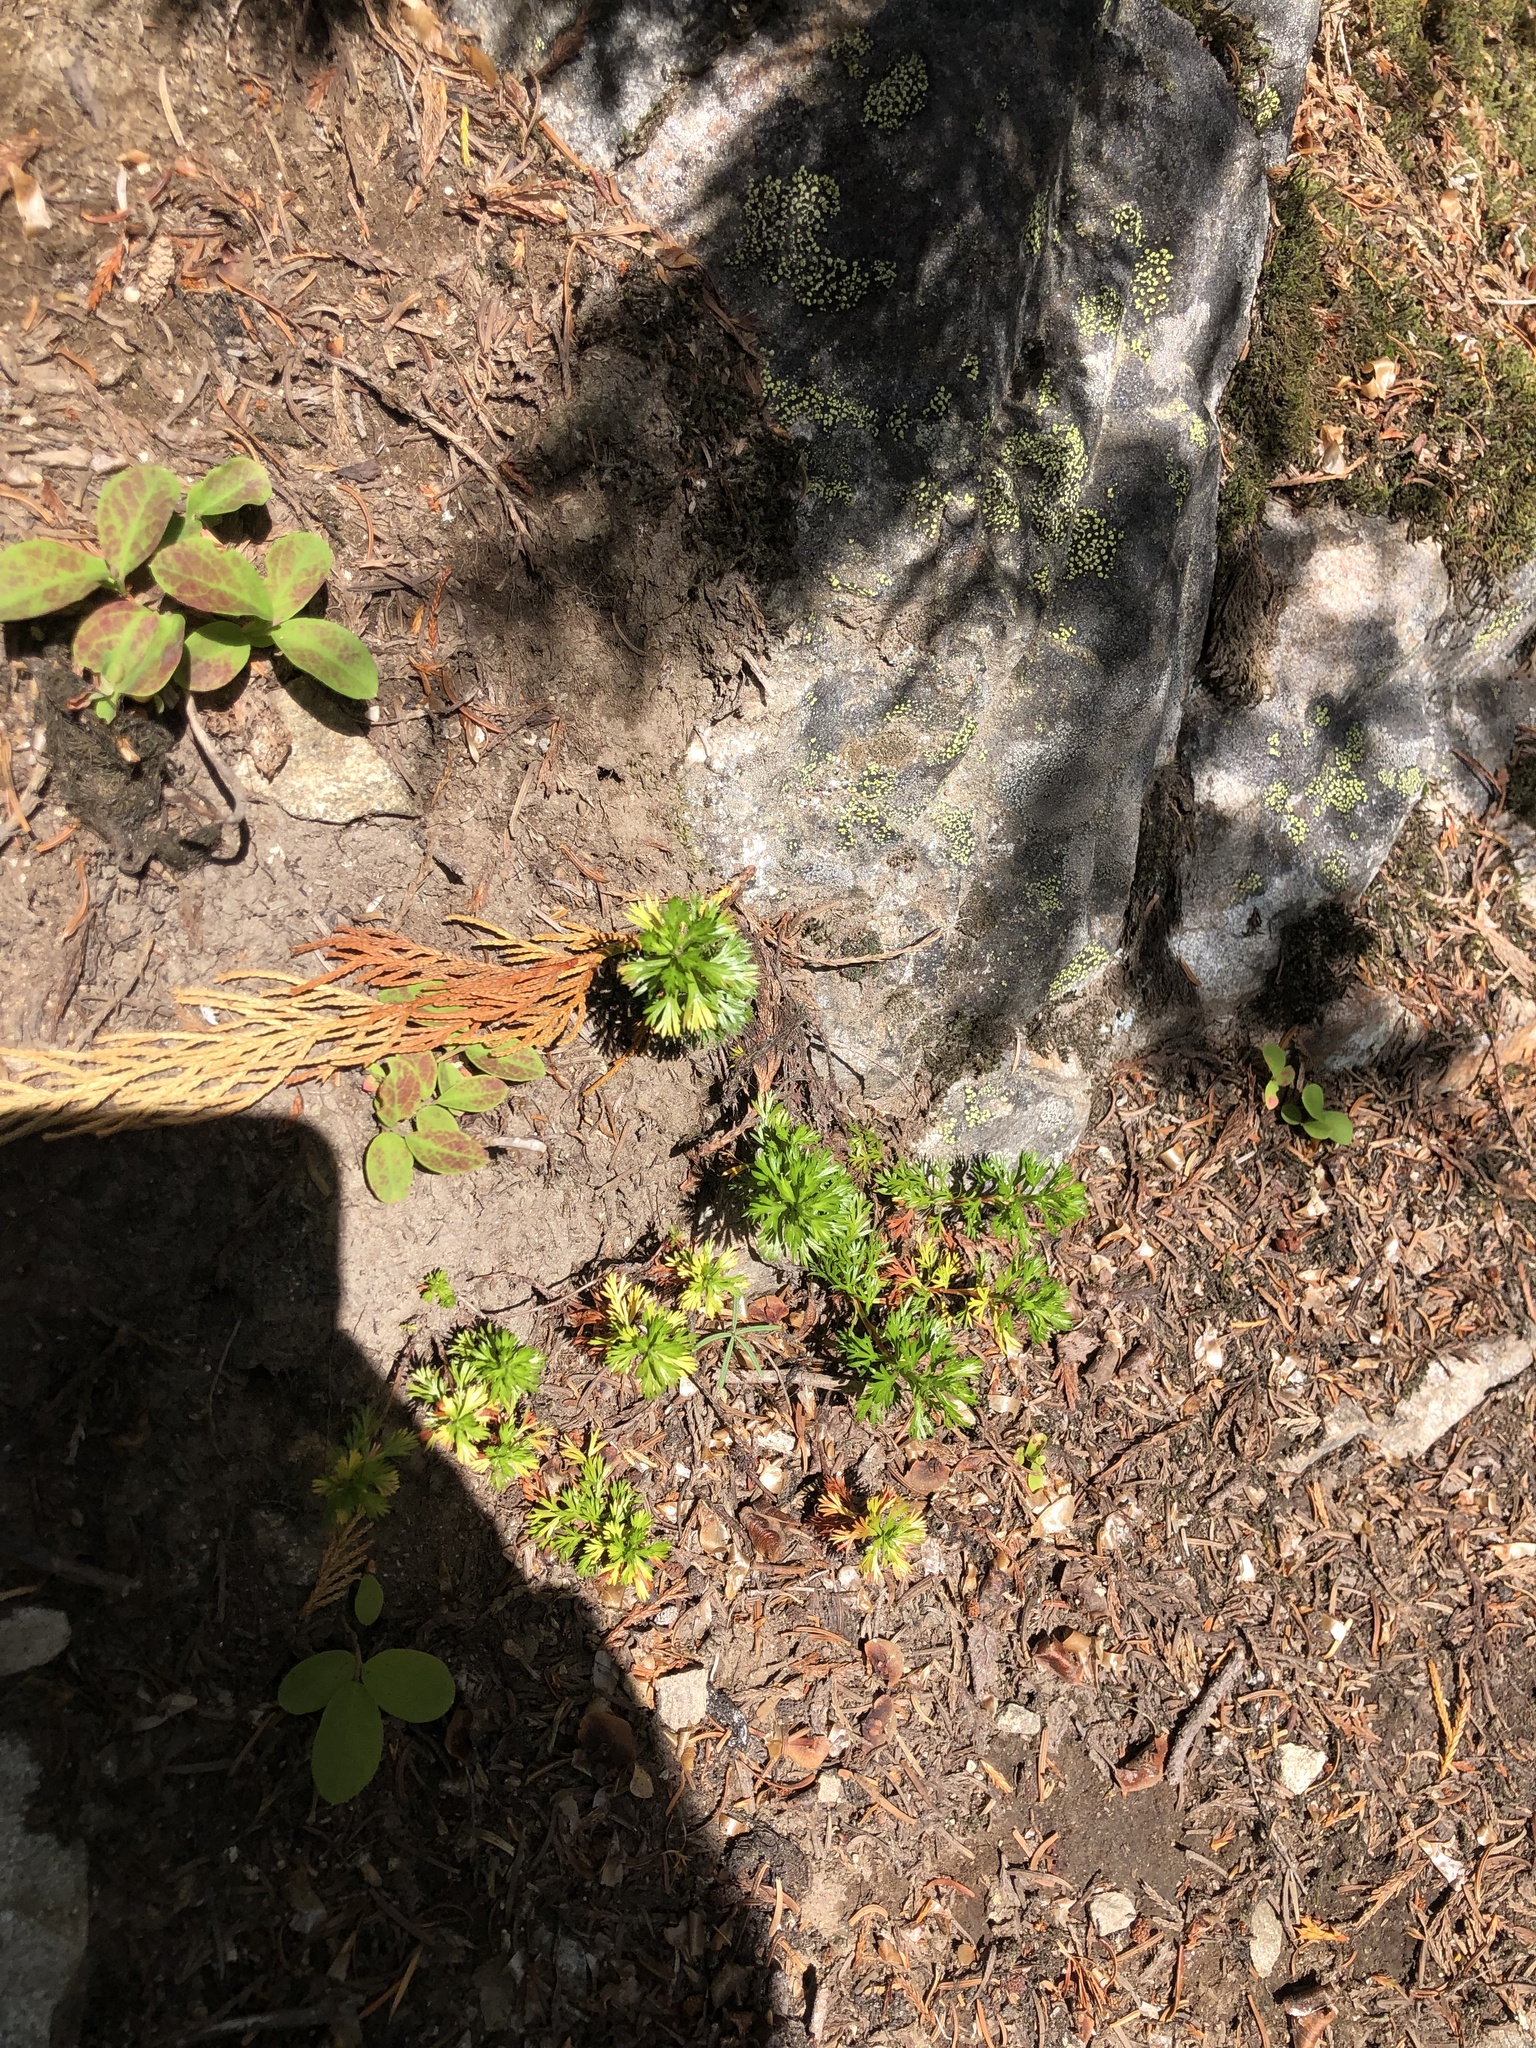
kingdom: Plantae
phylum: Tracheophyta
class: Magnoliopsida
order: Rosales
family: Rosaceae
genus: Luetkea
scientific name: Luetkea pectinata
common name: Partridgefoot
